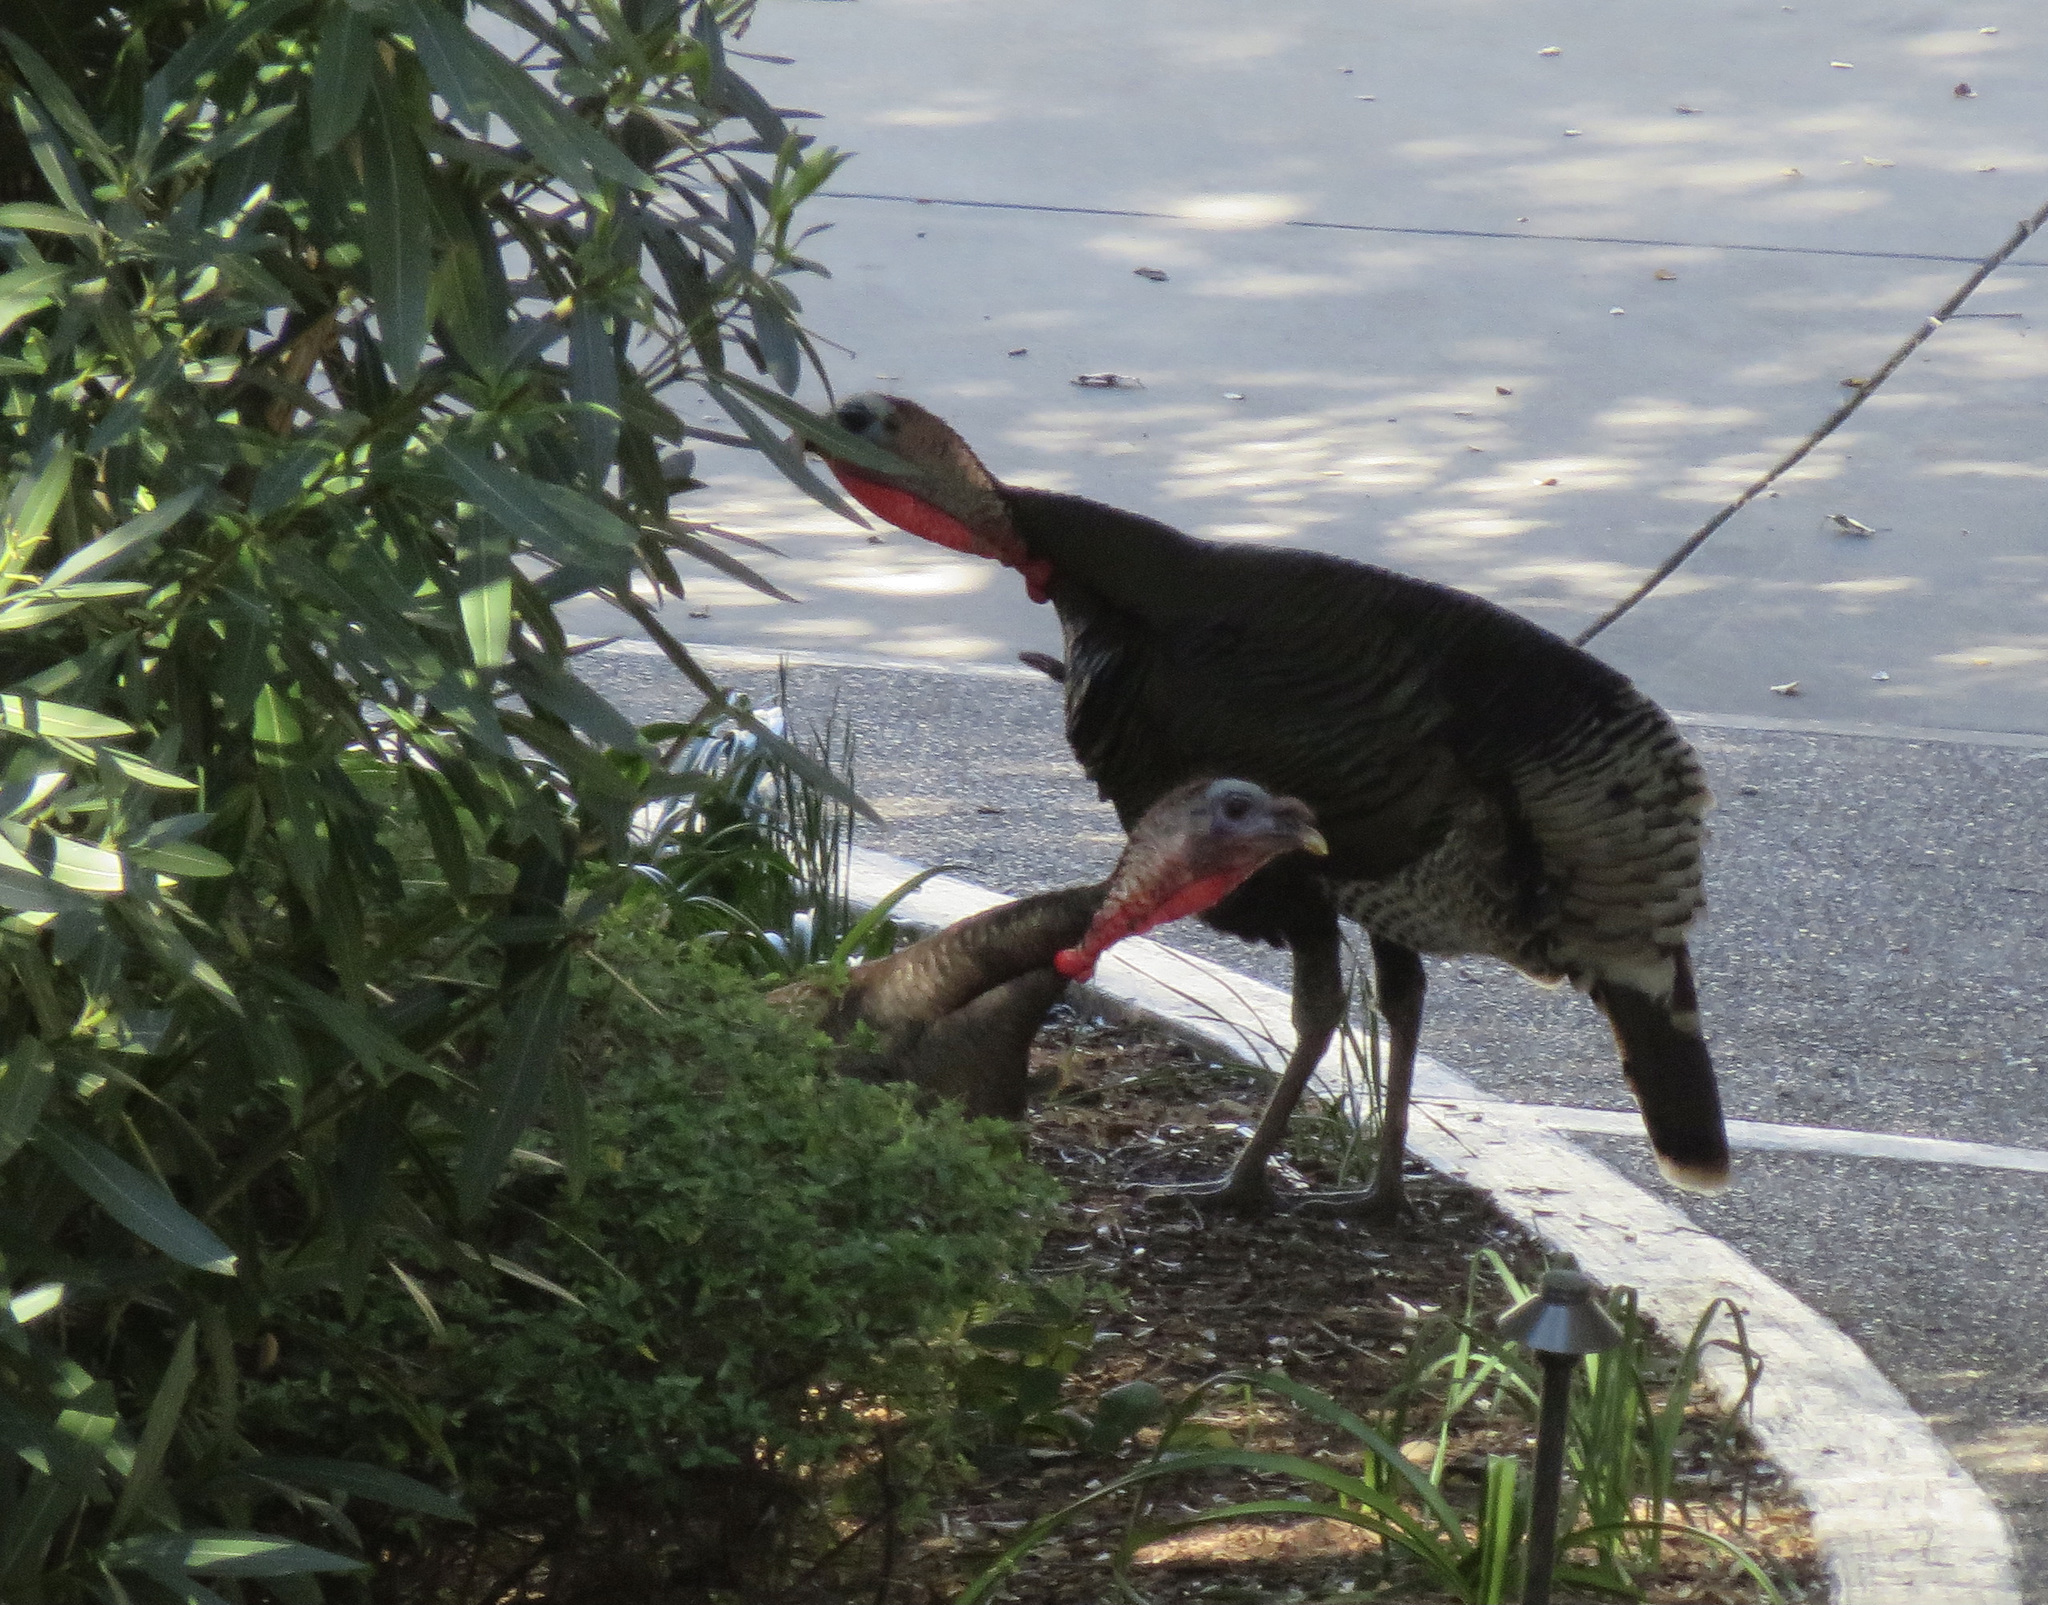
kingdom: Animalia
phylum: Chordata
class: Aves
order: Galliformes
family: Phasianidae
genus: Meleagris
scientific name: Meleagris gallopavo
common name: Wild turkey
